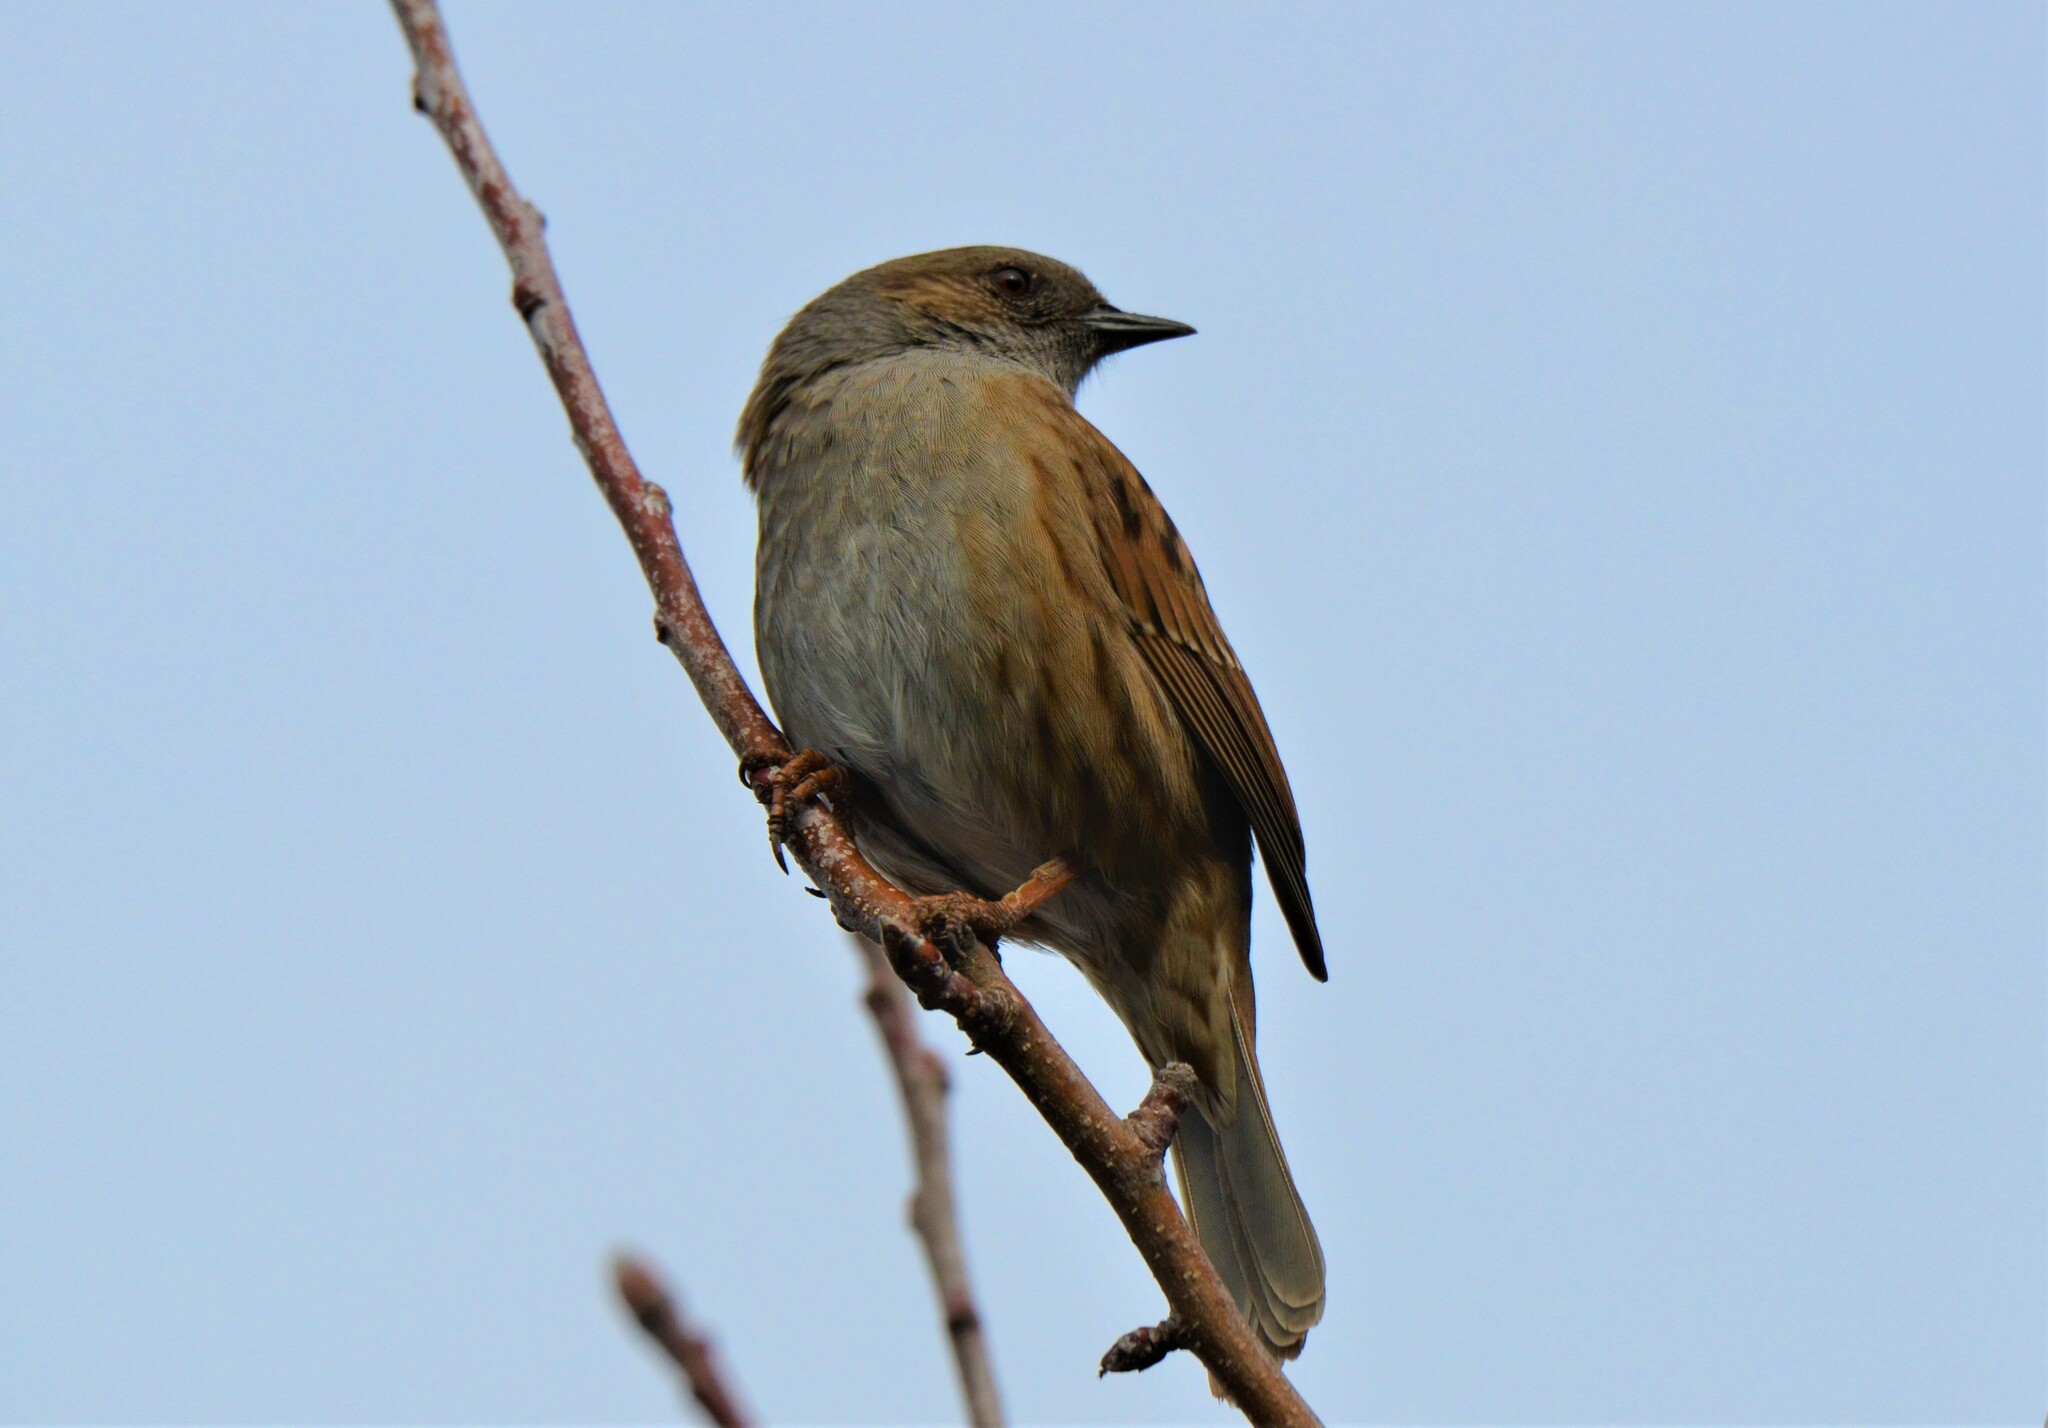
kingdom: Animalia
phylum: Chordata
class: Aves
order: Passeriformes
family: Prunellidae
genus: Prunella
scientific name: Prunella modularis
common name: Dunnock
